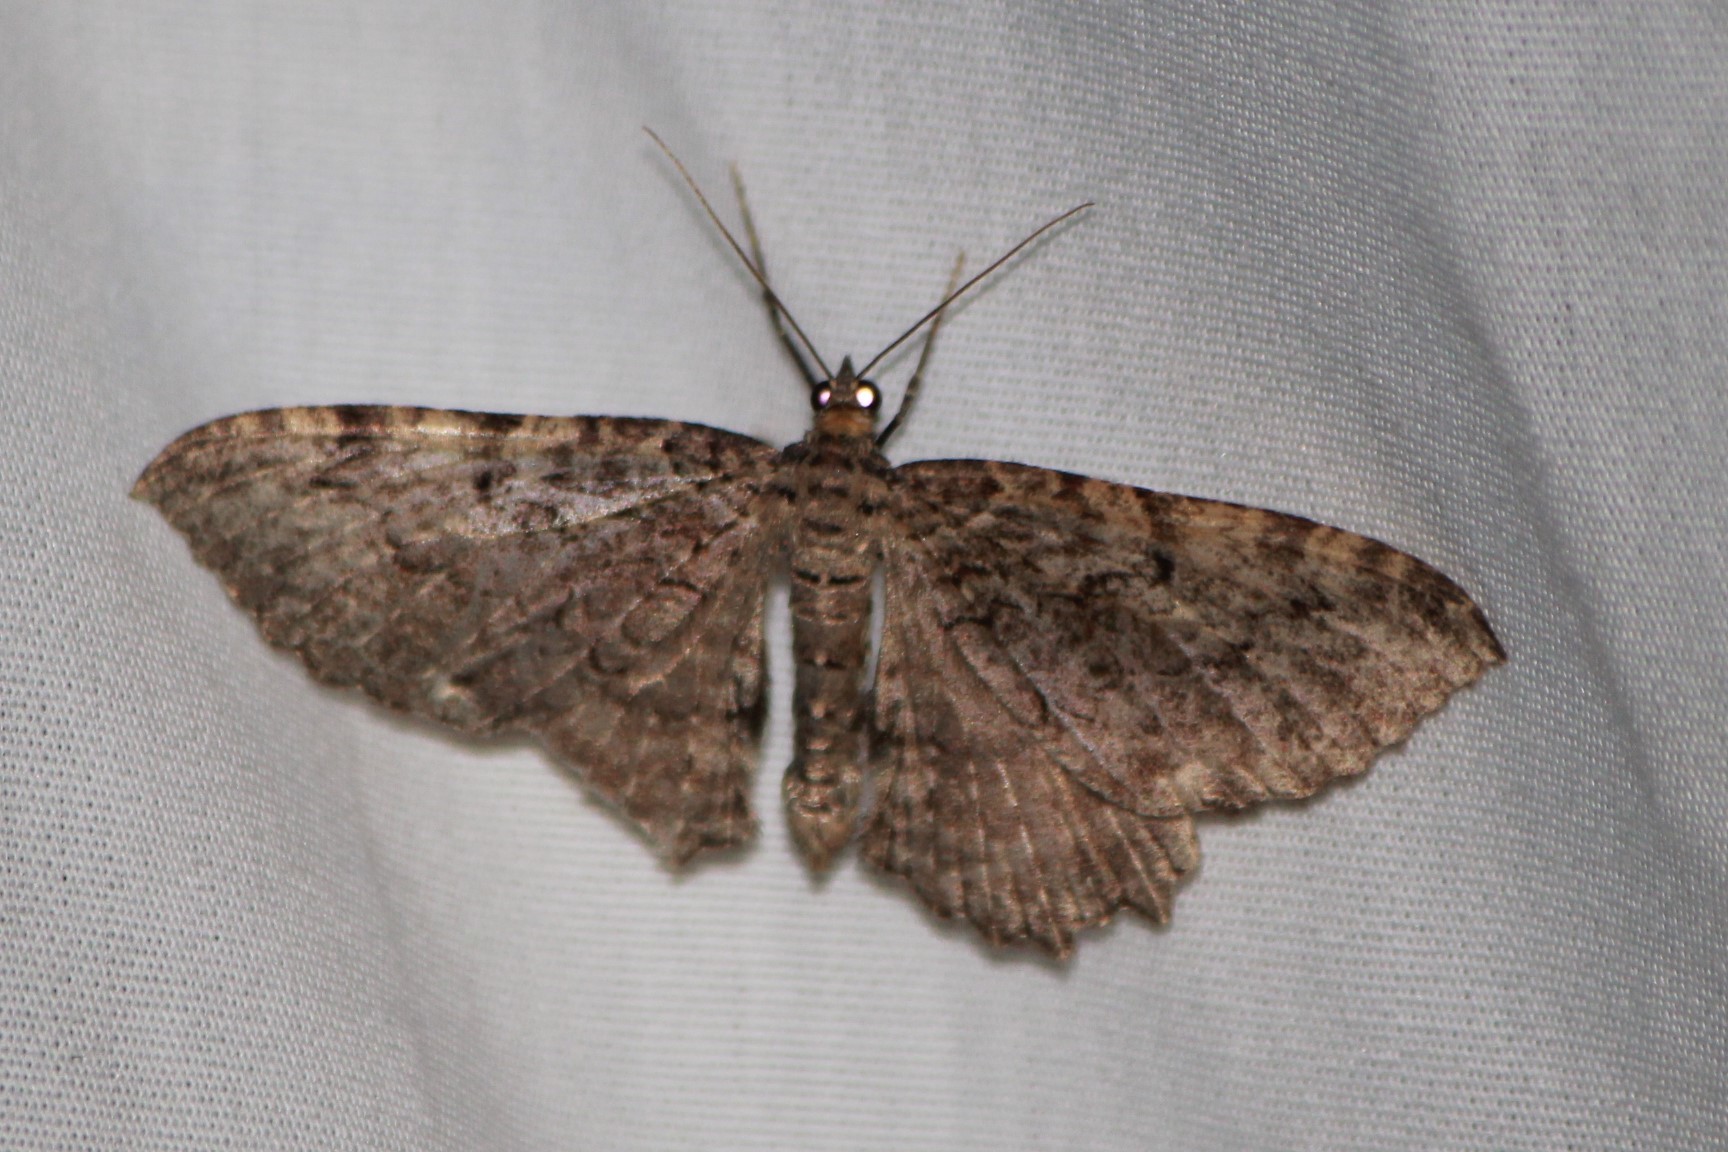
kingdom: Animalia
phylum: Arthropoda
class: Insecta
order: Lepidoptera
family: Geometridae
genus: Rheumaptera
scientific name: Rheumaptera
